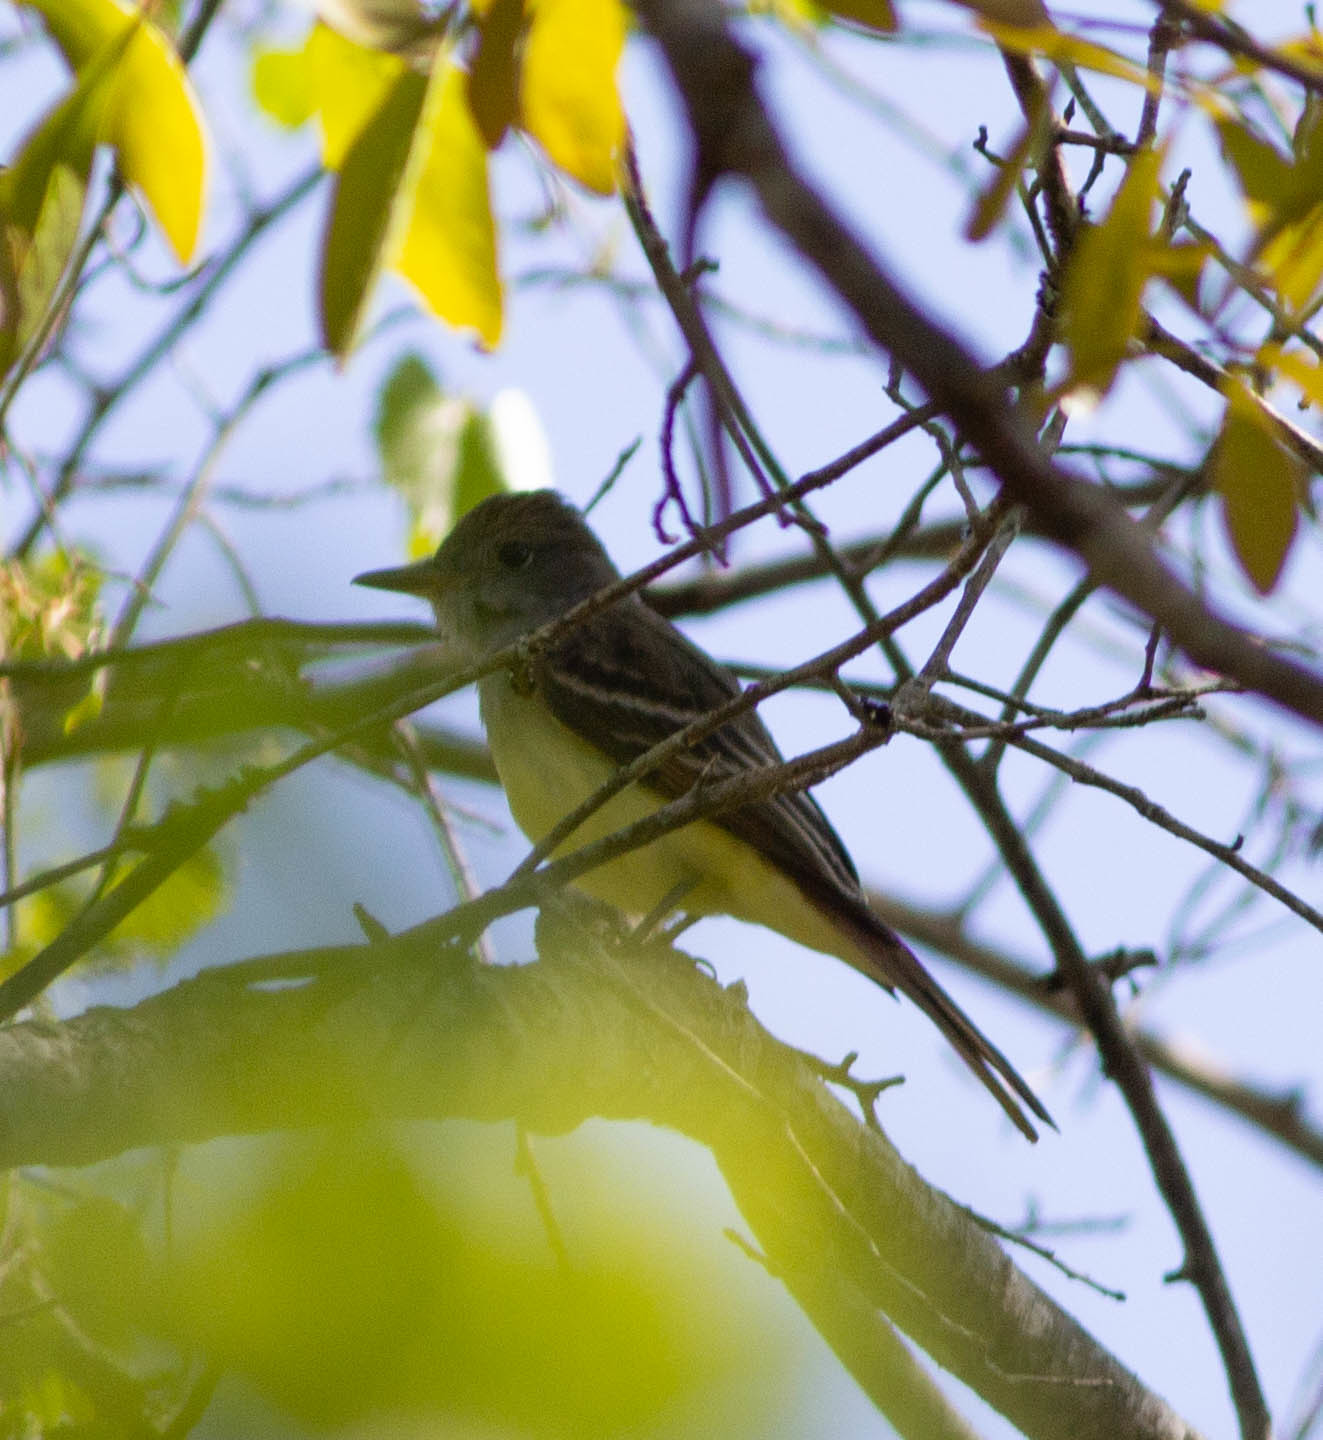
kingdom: Animalia
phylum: Chordata
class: Aves
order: Passeriformes
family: Tyrannidae
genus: Myiarchus
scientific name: Myiarchus crinitus
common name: Great crested flycatcher
